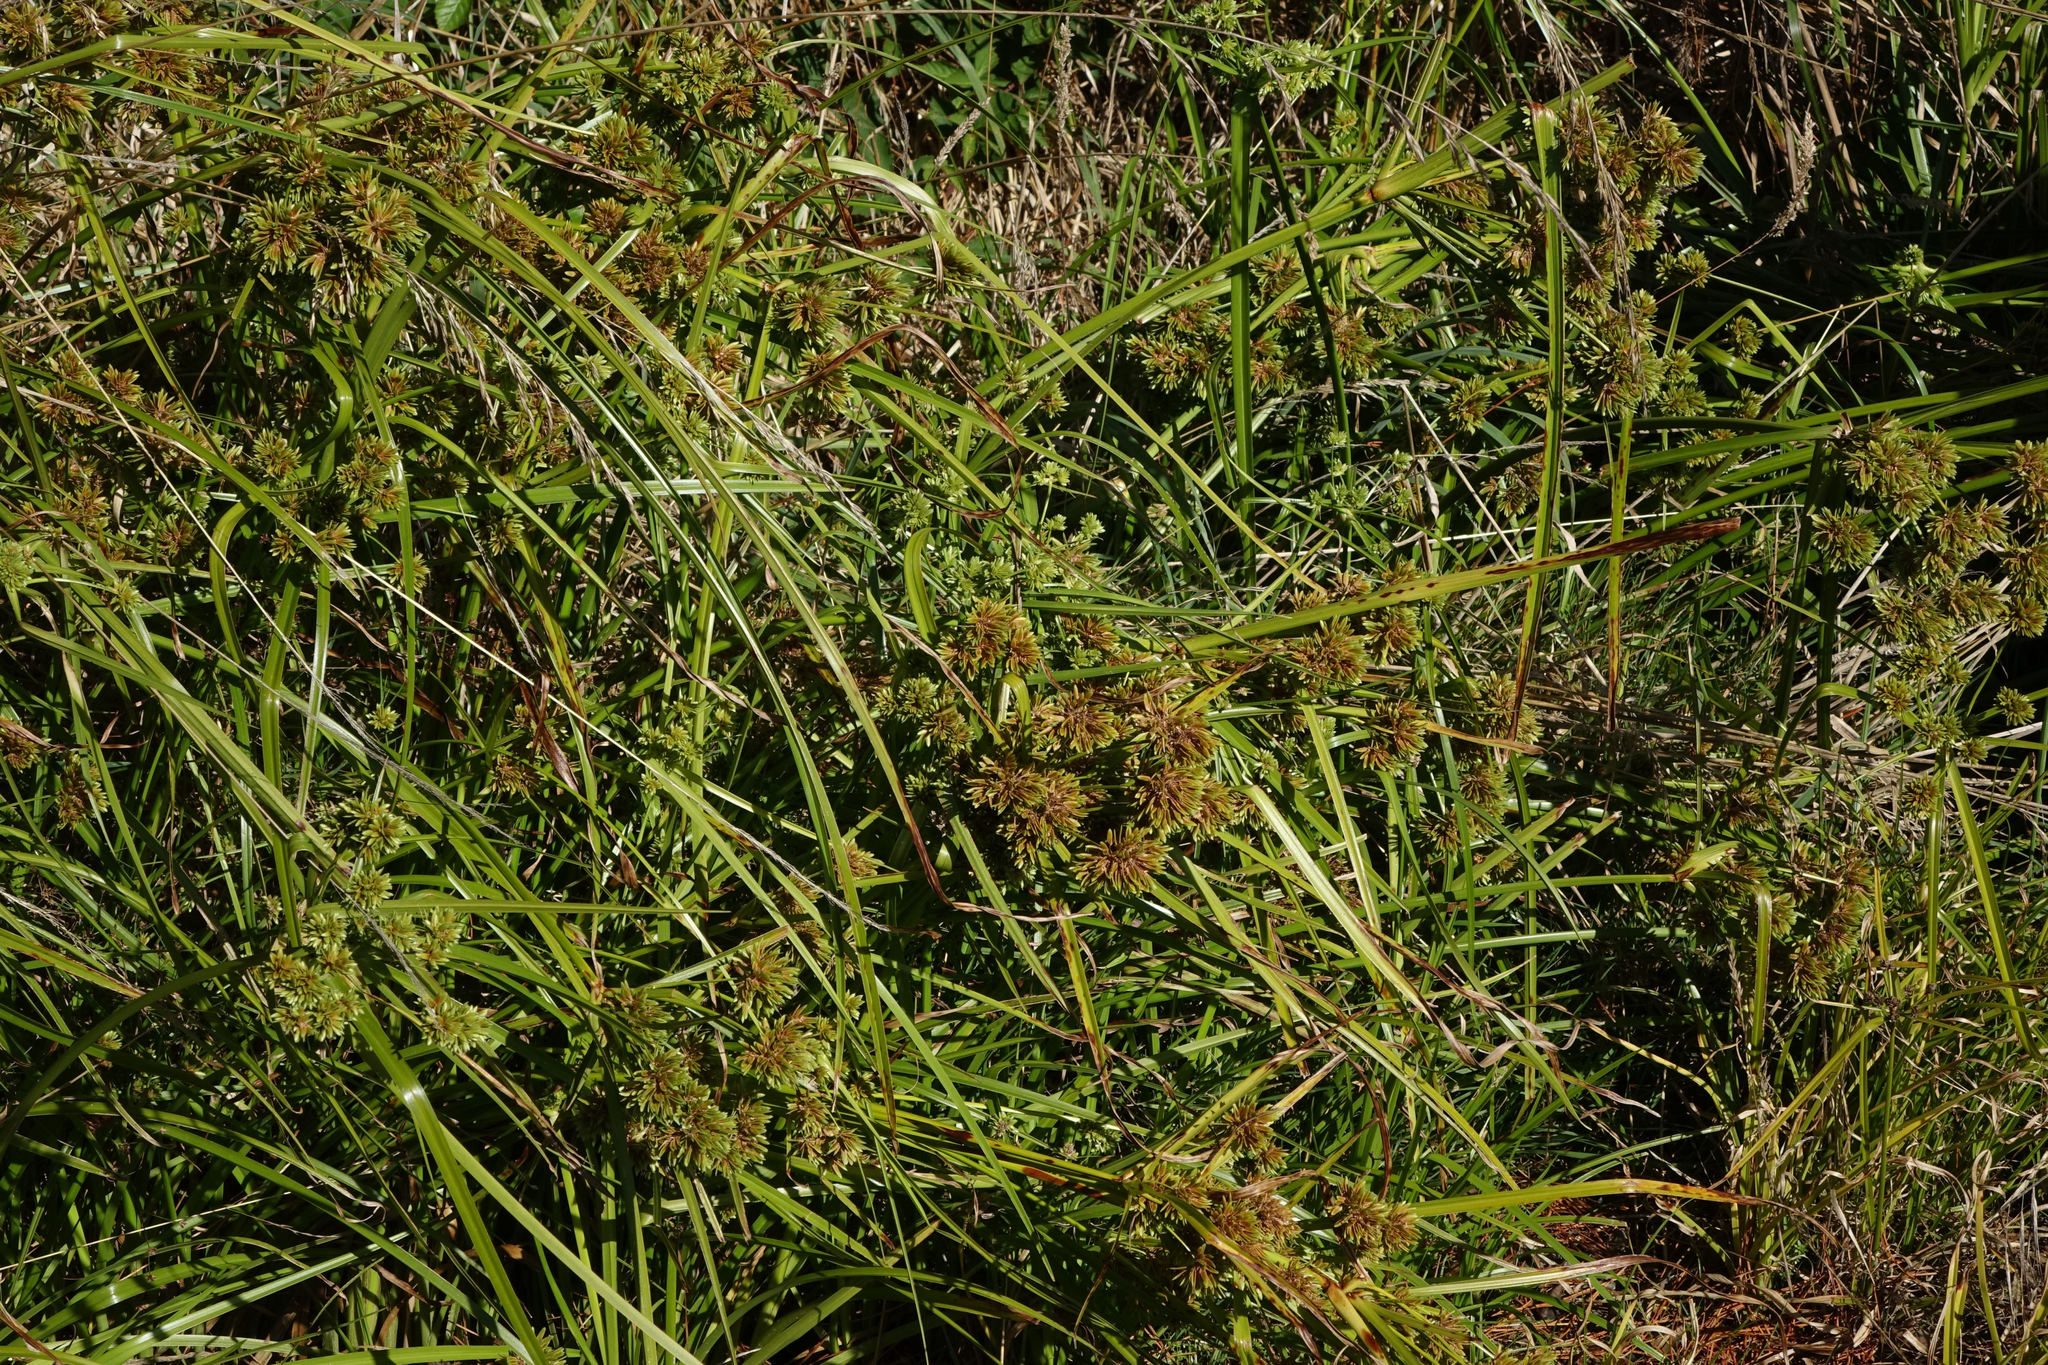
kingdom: Plantae
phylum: Tracheophyta
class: Liliopsida
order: Poales
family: Cyperaceae
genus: Cyperus
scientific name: Cyperus eragrostis
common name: Tall flatsedge
